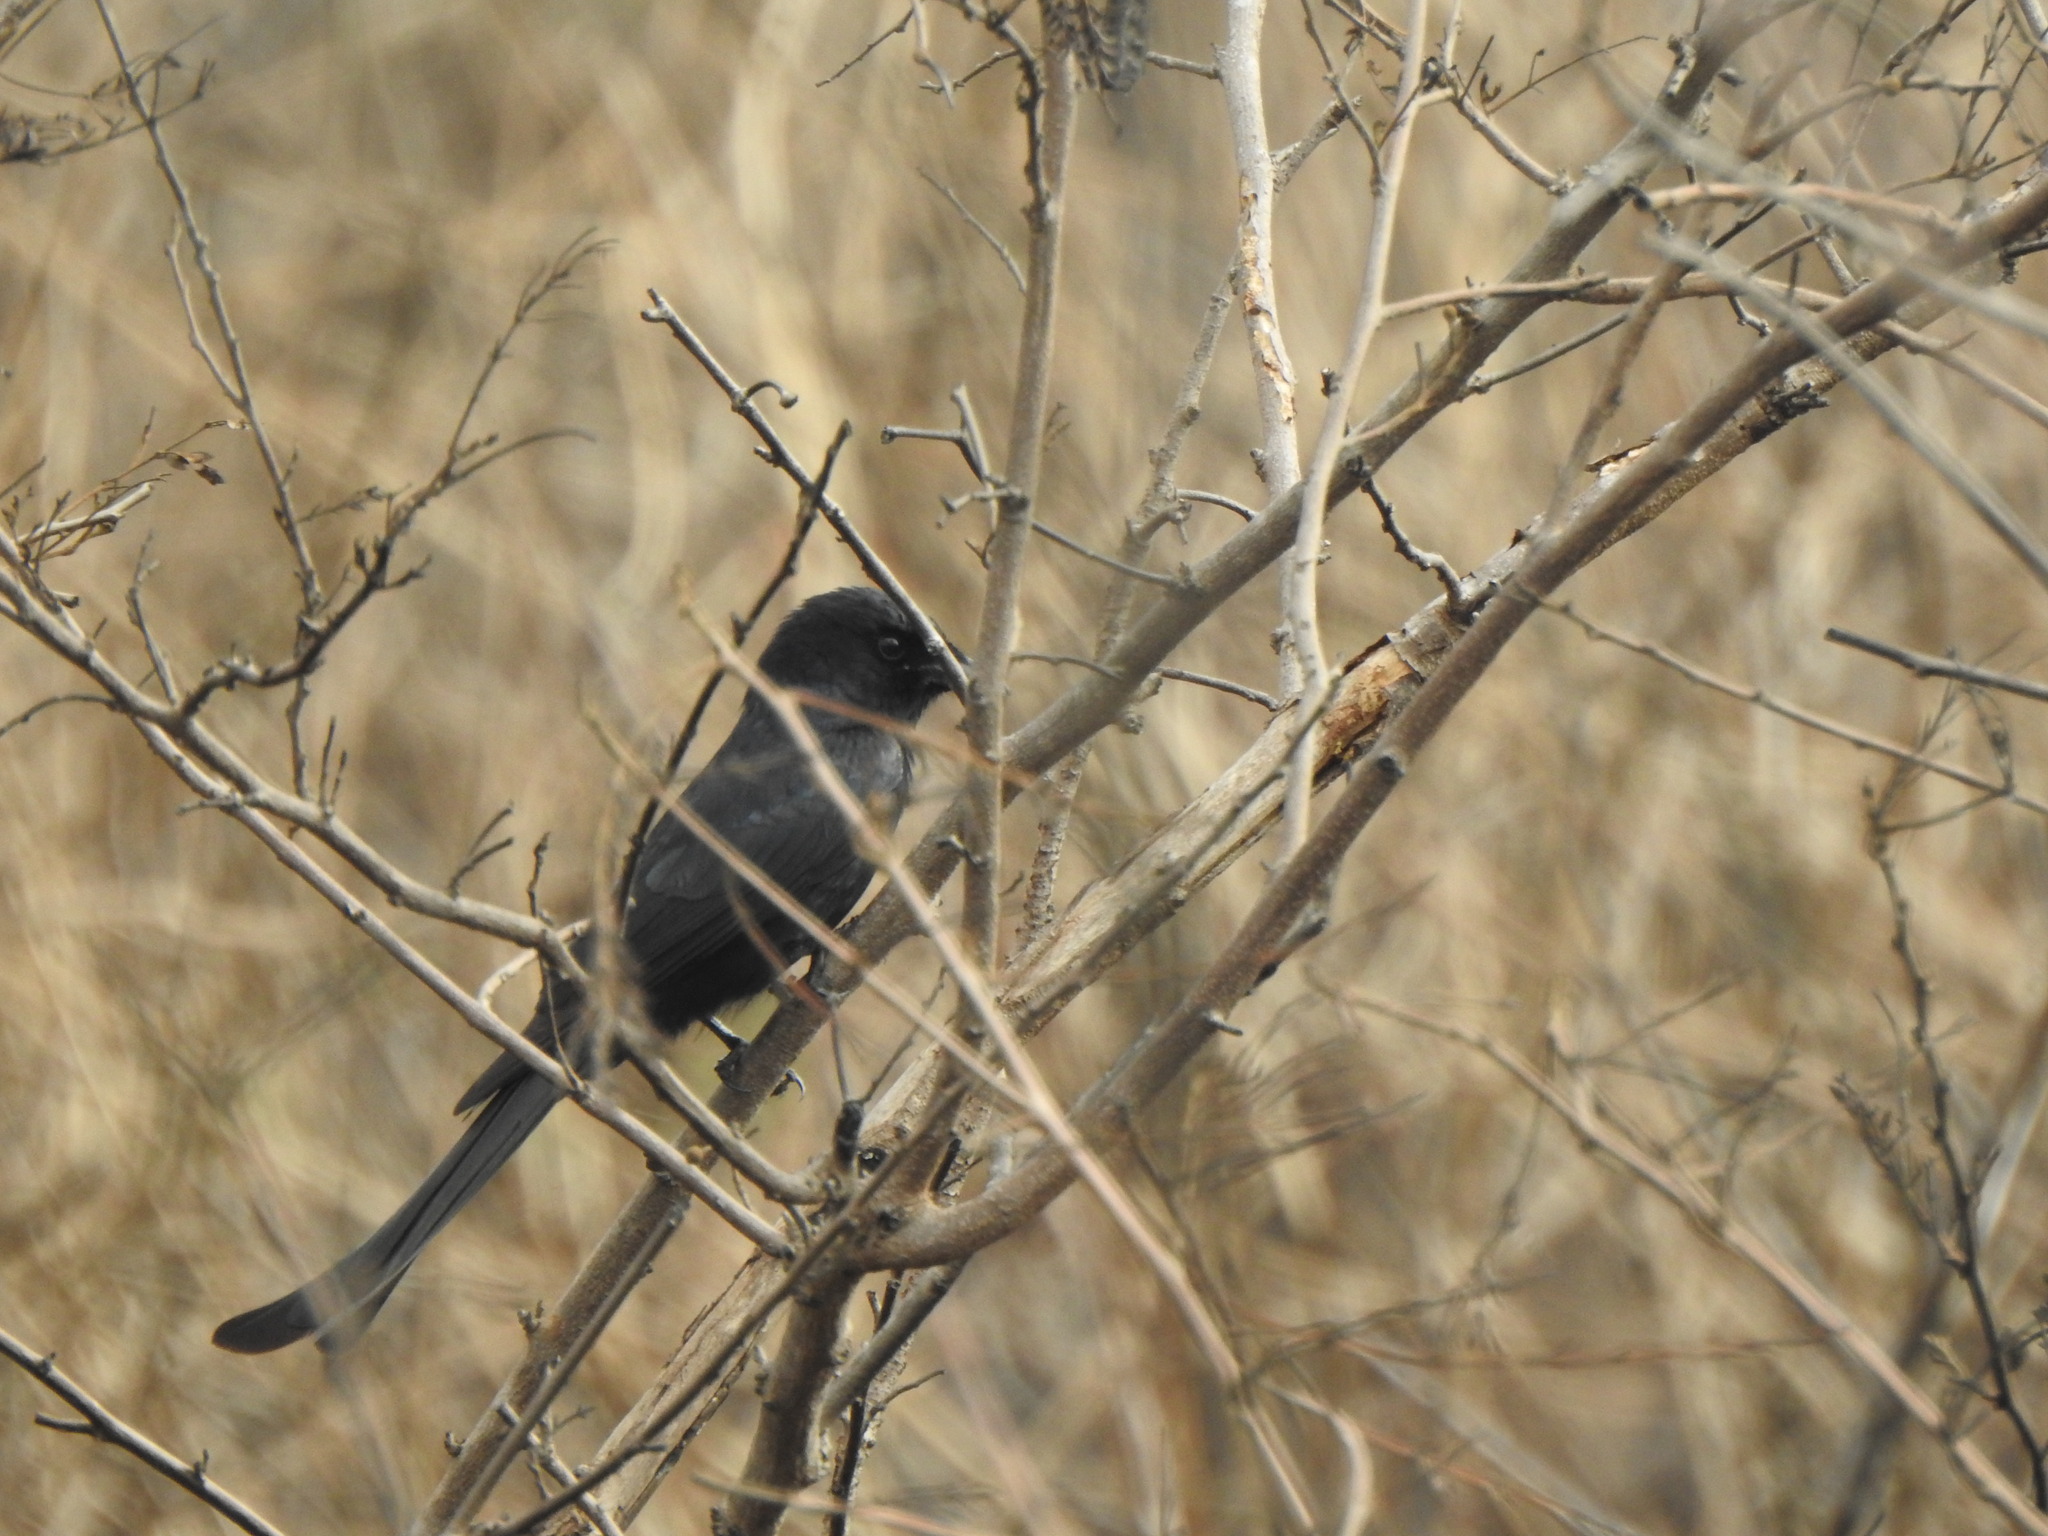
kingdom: Animalia
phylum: Chordata
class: Aves
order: Passeriformes
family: Dicruridae
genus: Dicrurus
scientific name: Dicrurus macrocercus
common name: Black drongo
